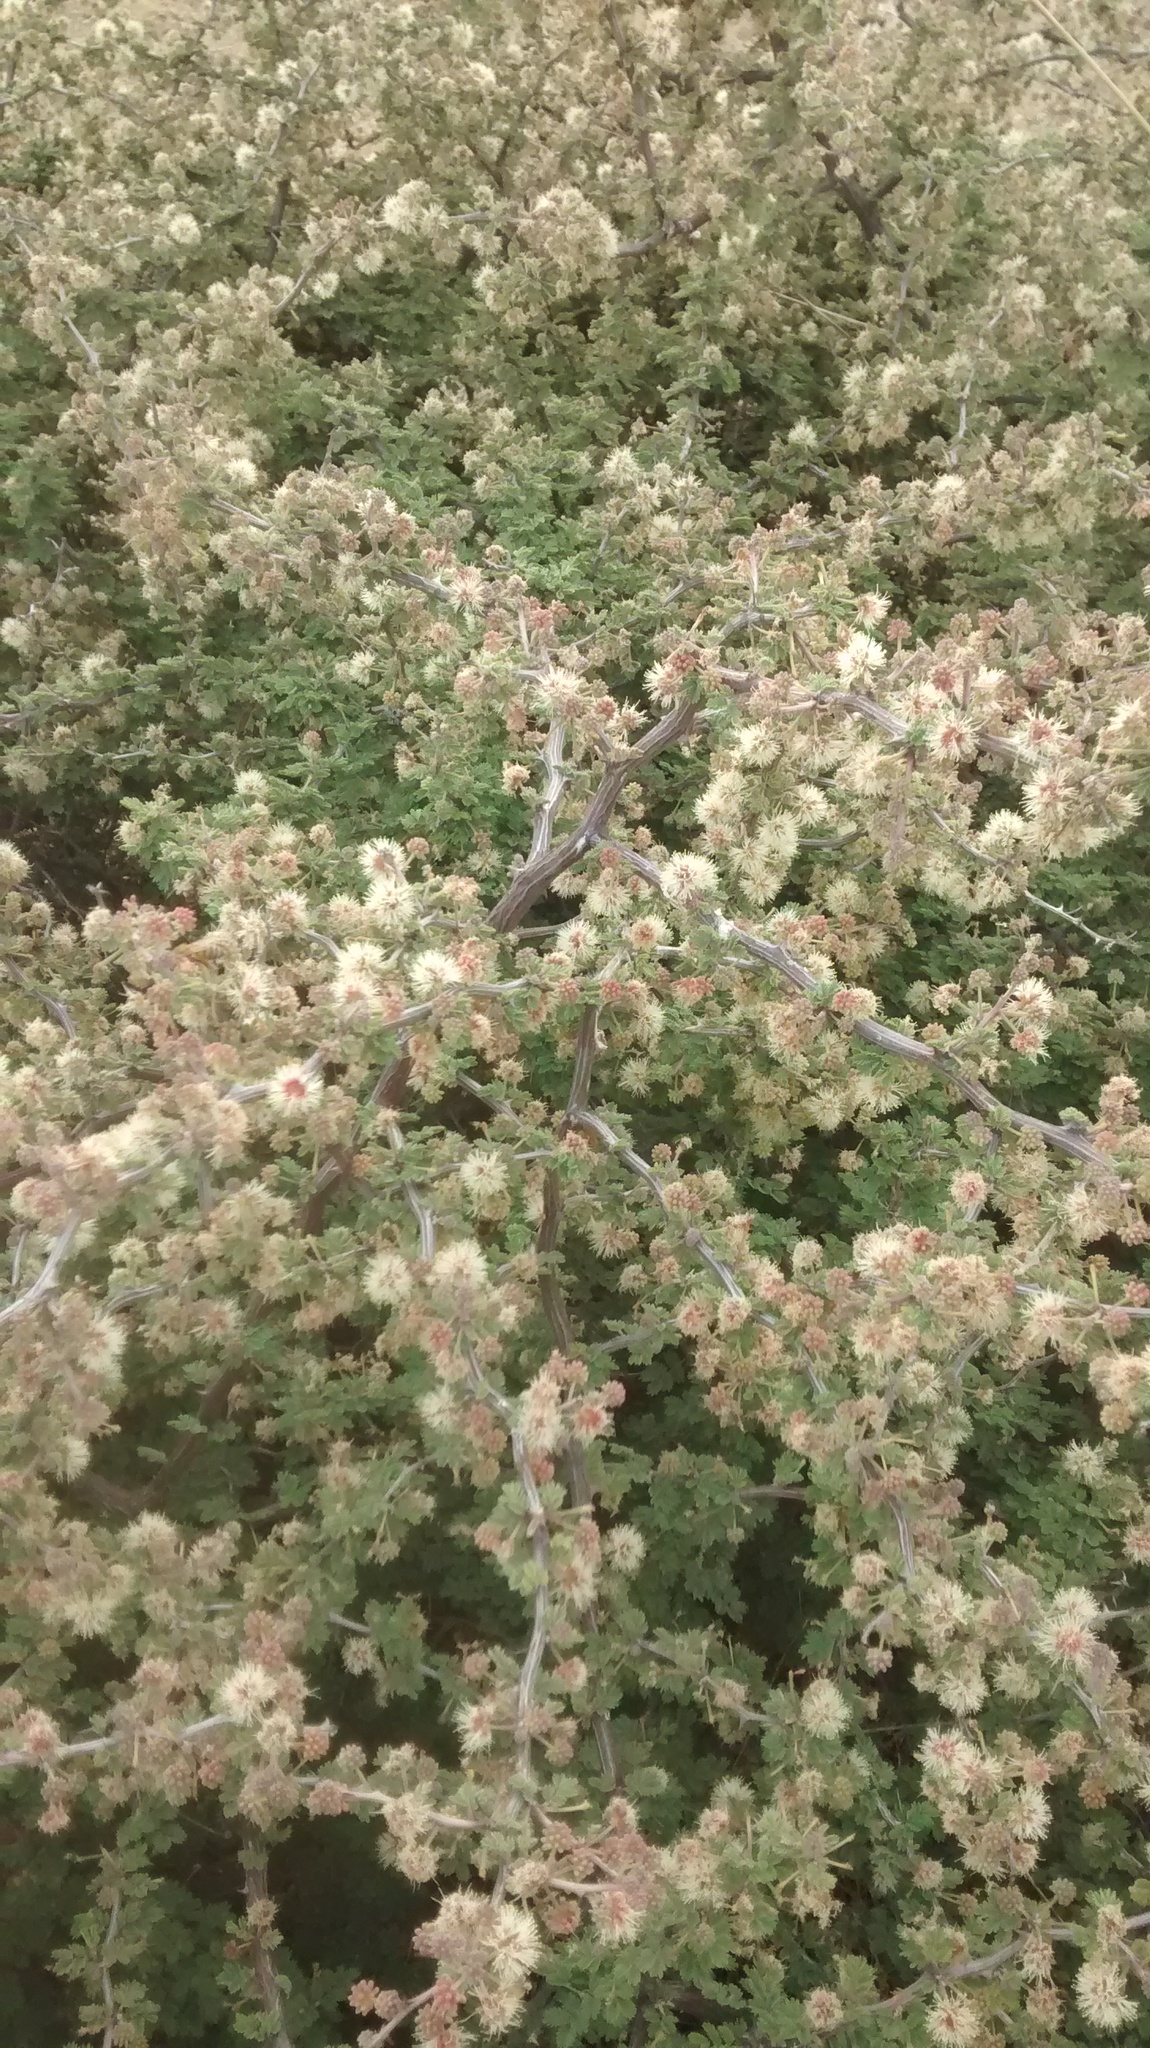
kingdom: Plantae
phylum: Tracheophyta
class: Magnoliopsida
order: Fabales
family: Fabaceae
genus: Mimosa
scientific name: Mimosa aculeaticarpa
